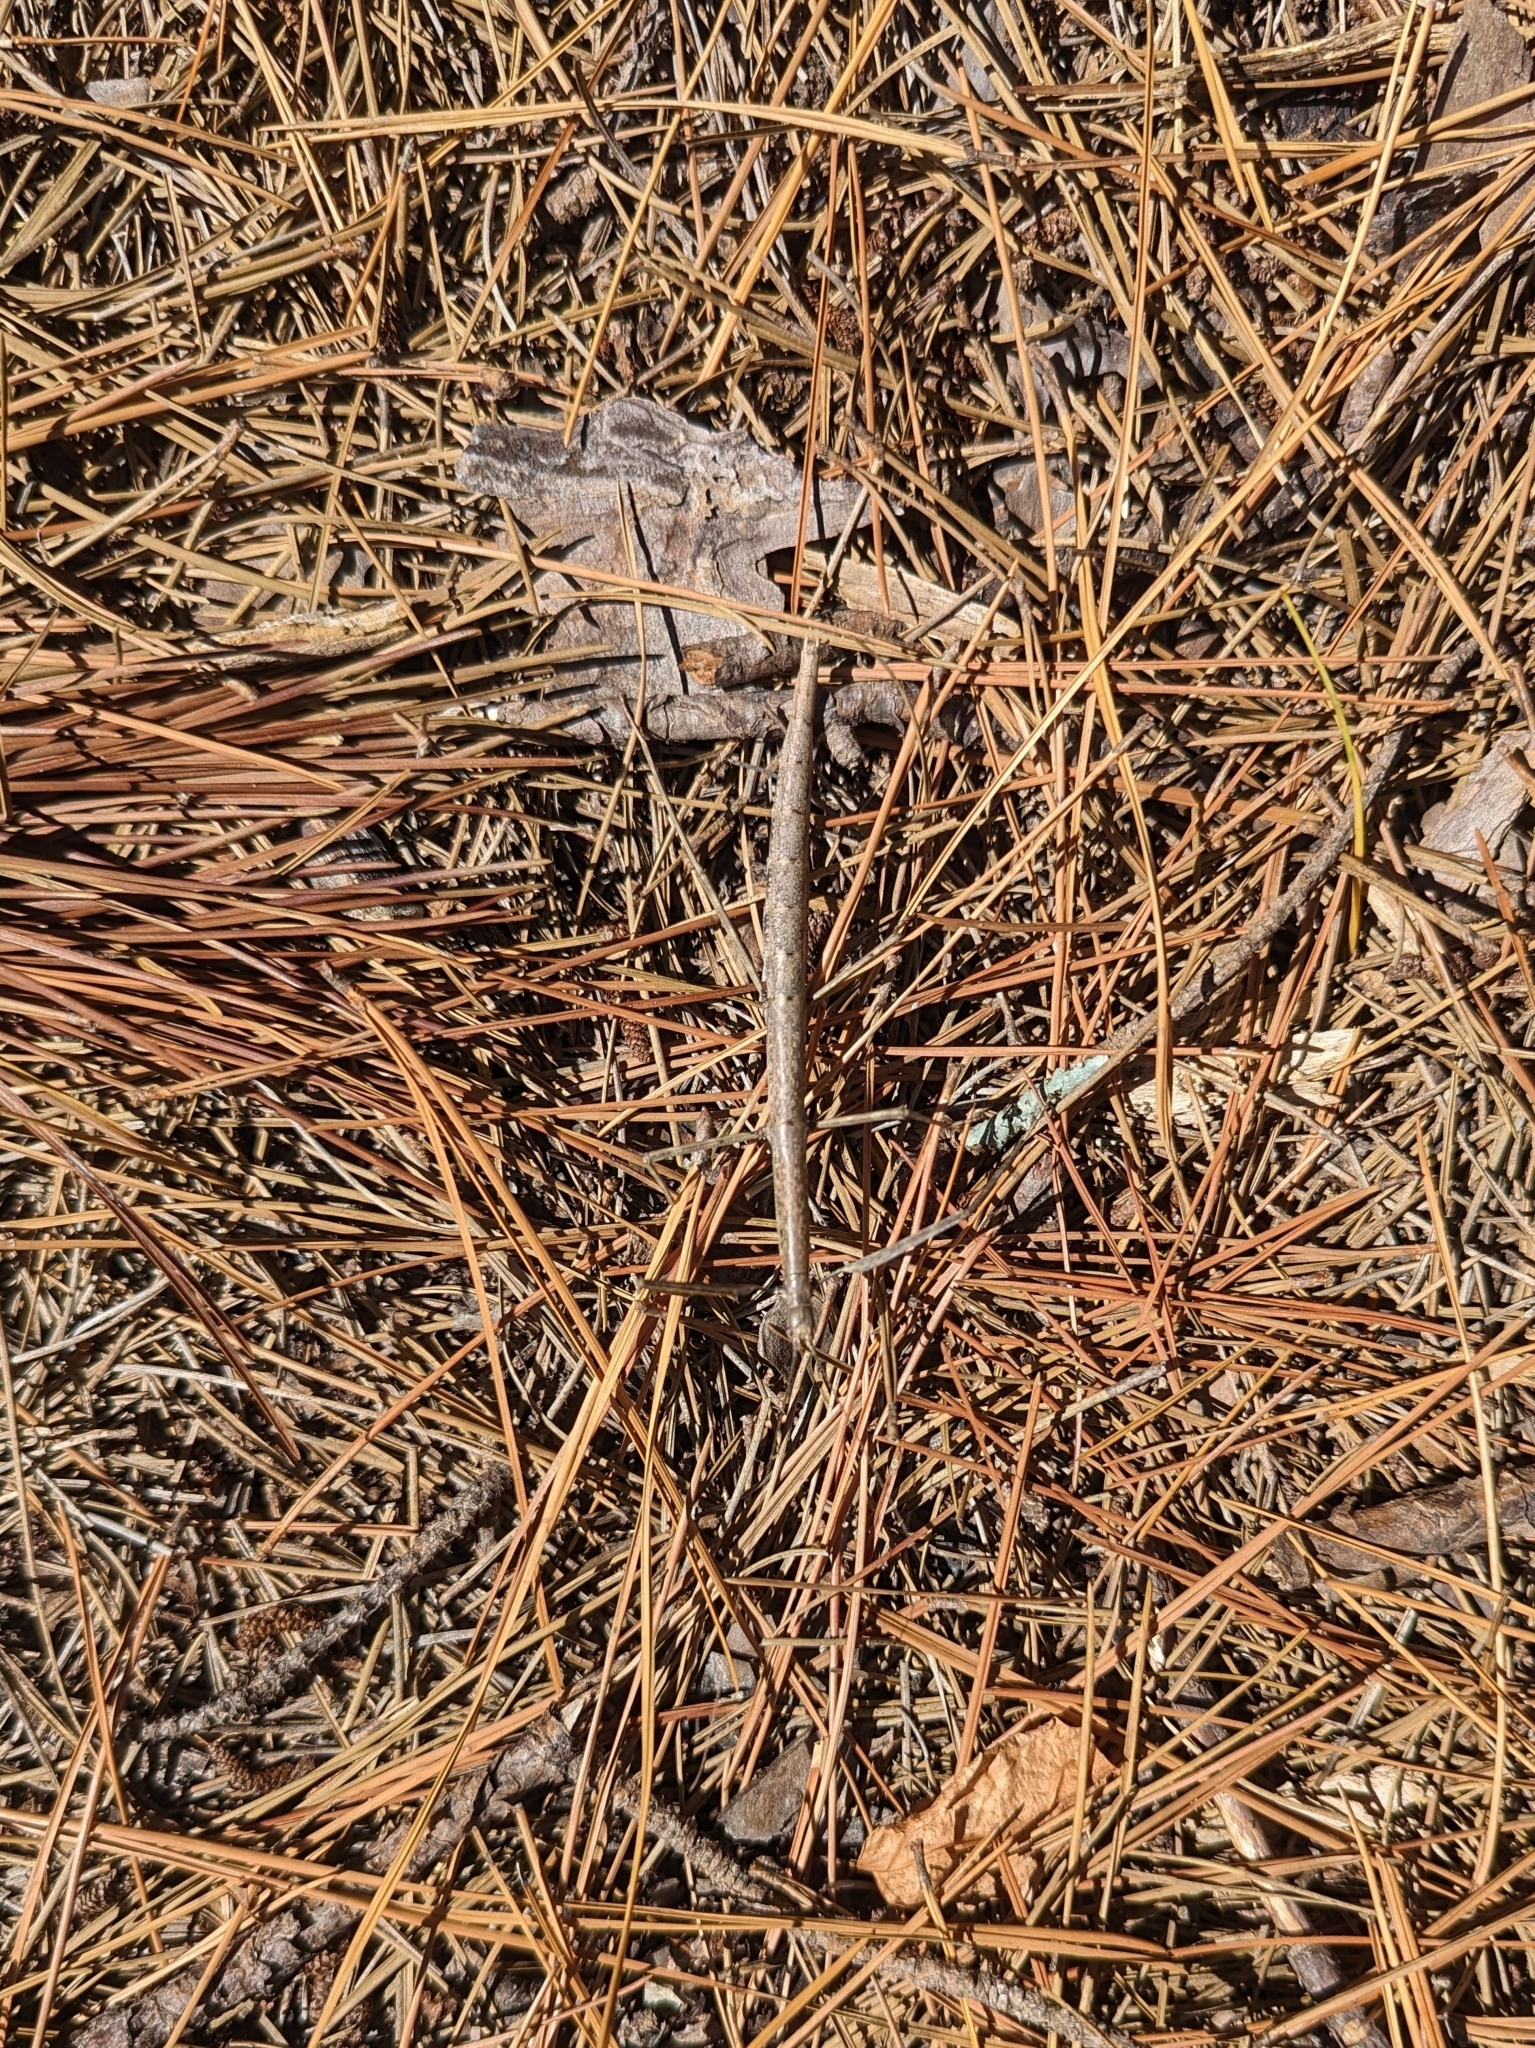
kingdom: Animalia
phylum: Arthropoda
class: Insecta
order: Phasmida
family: Diapheromeridae
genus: Diapheromera
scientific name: Diapheromera femorata
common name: Common american walkingstick
